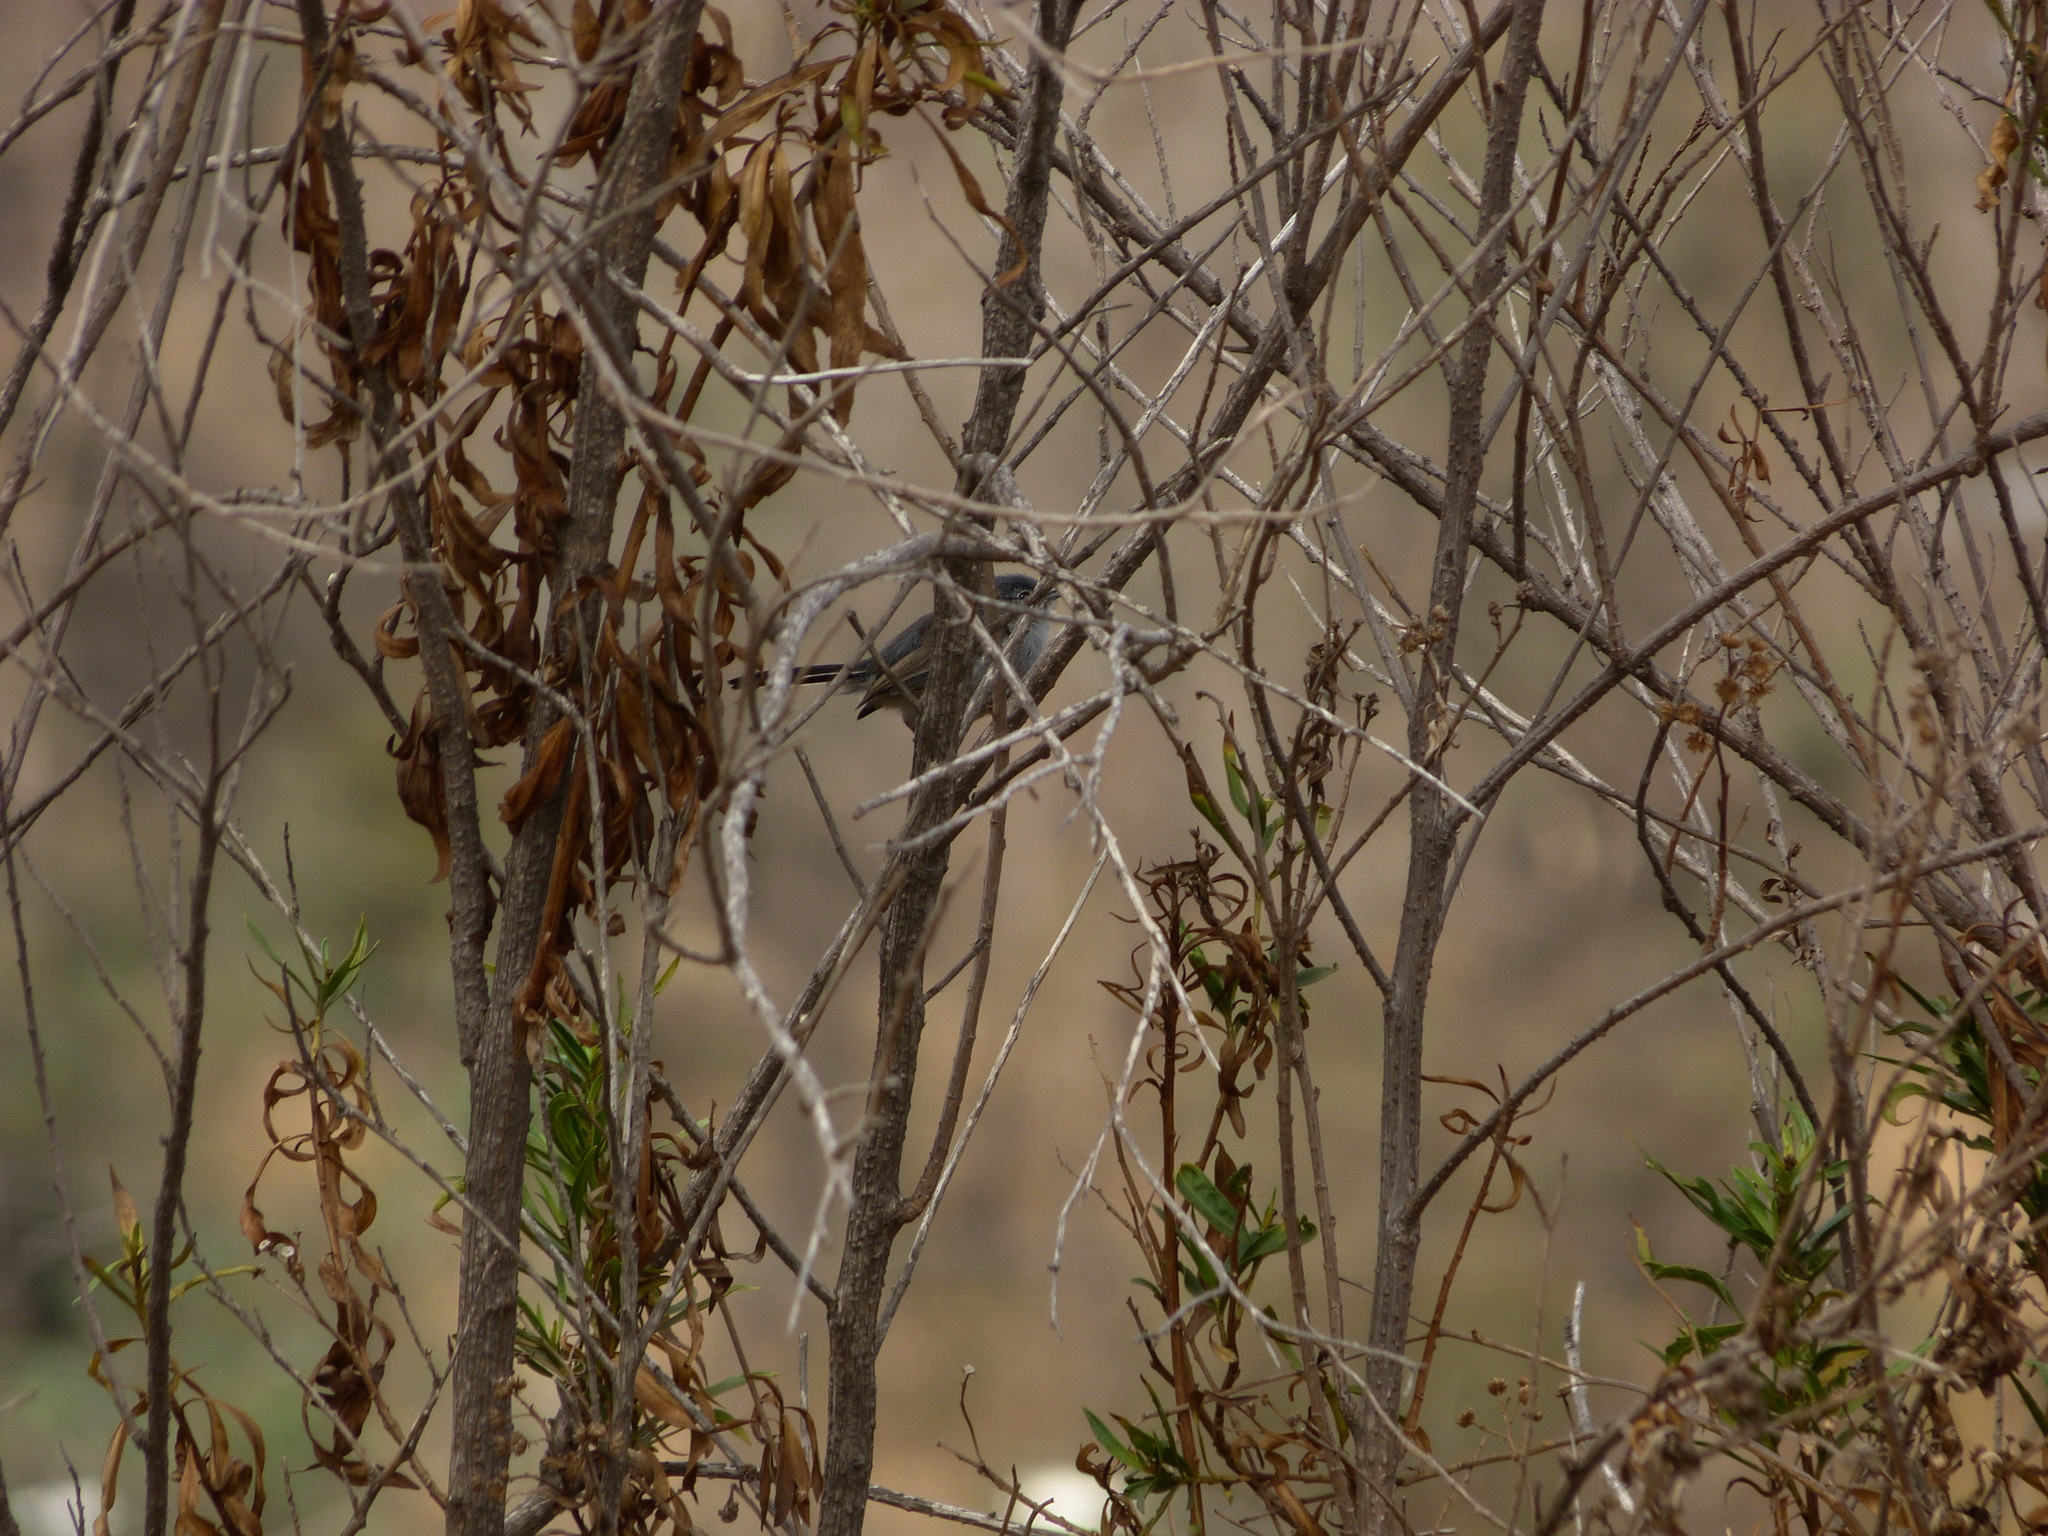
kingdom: Animalia
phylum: Chordata
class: Aves
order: Passeriformes
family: Polioptilidae
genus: Polioptila
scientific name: Polioptila californica
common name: California gnatcatcher
